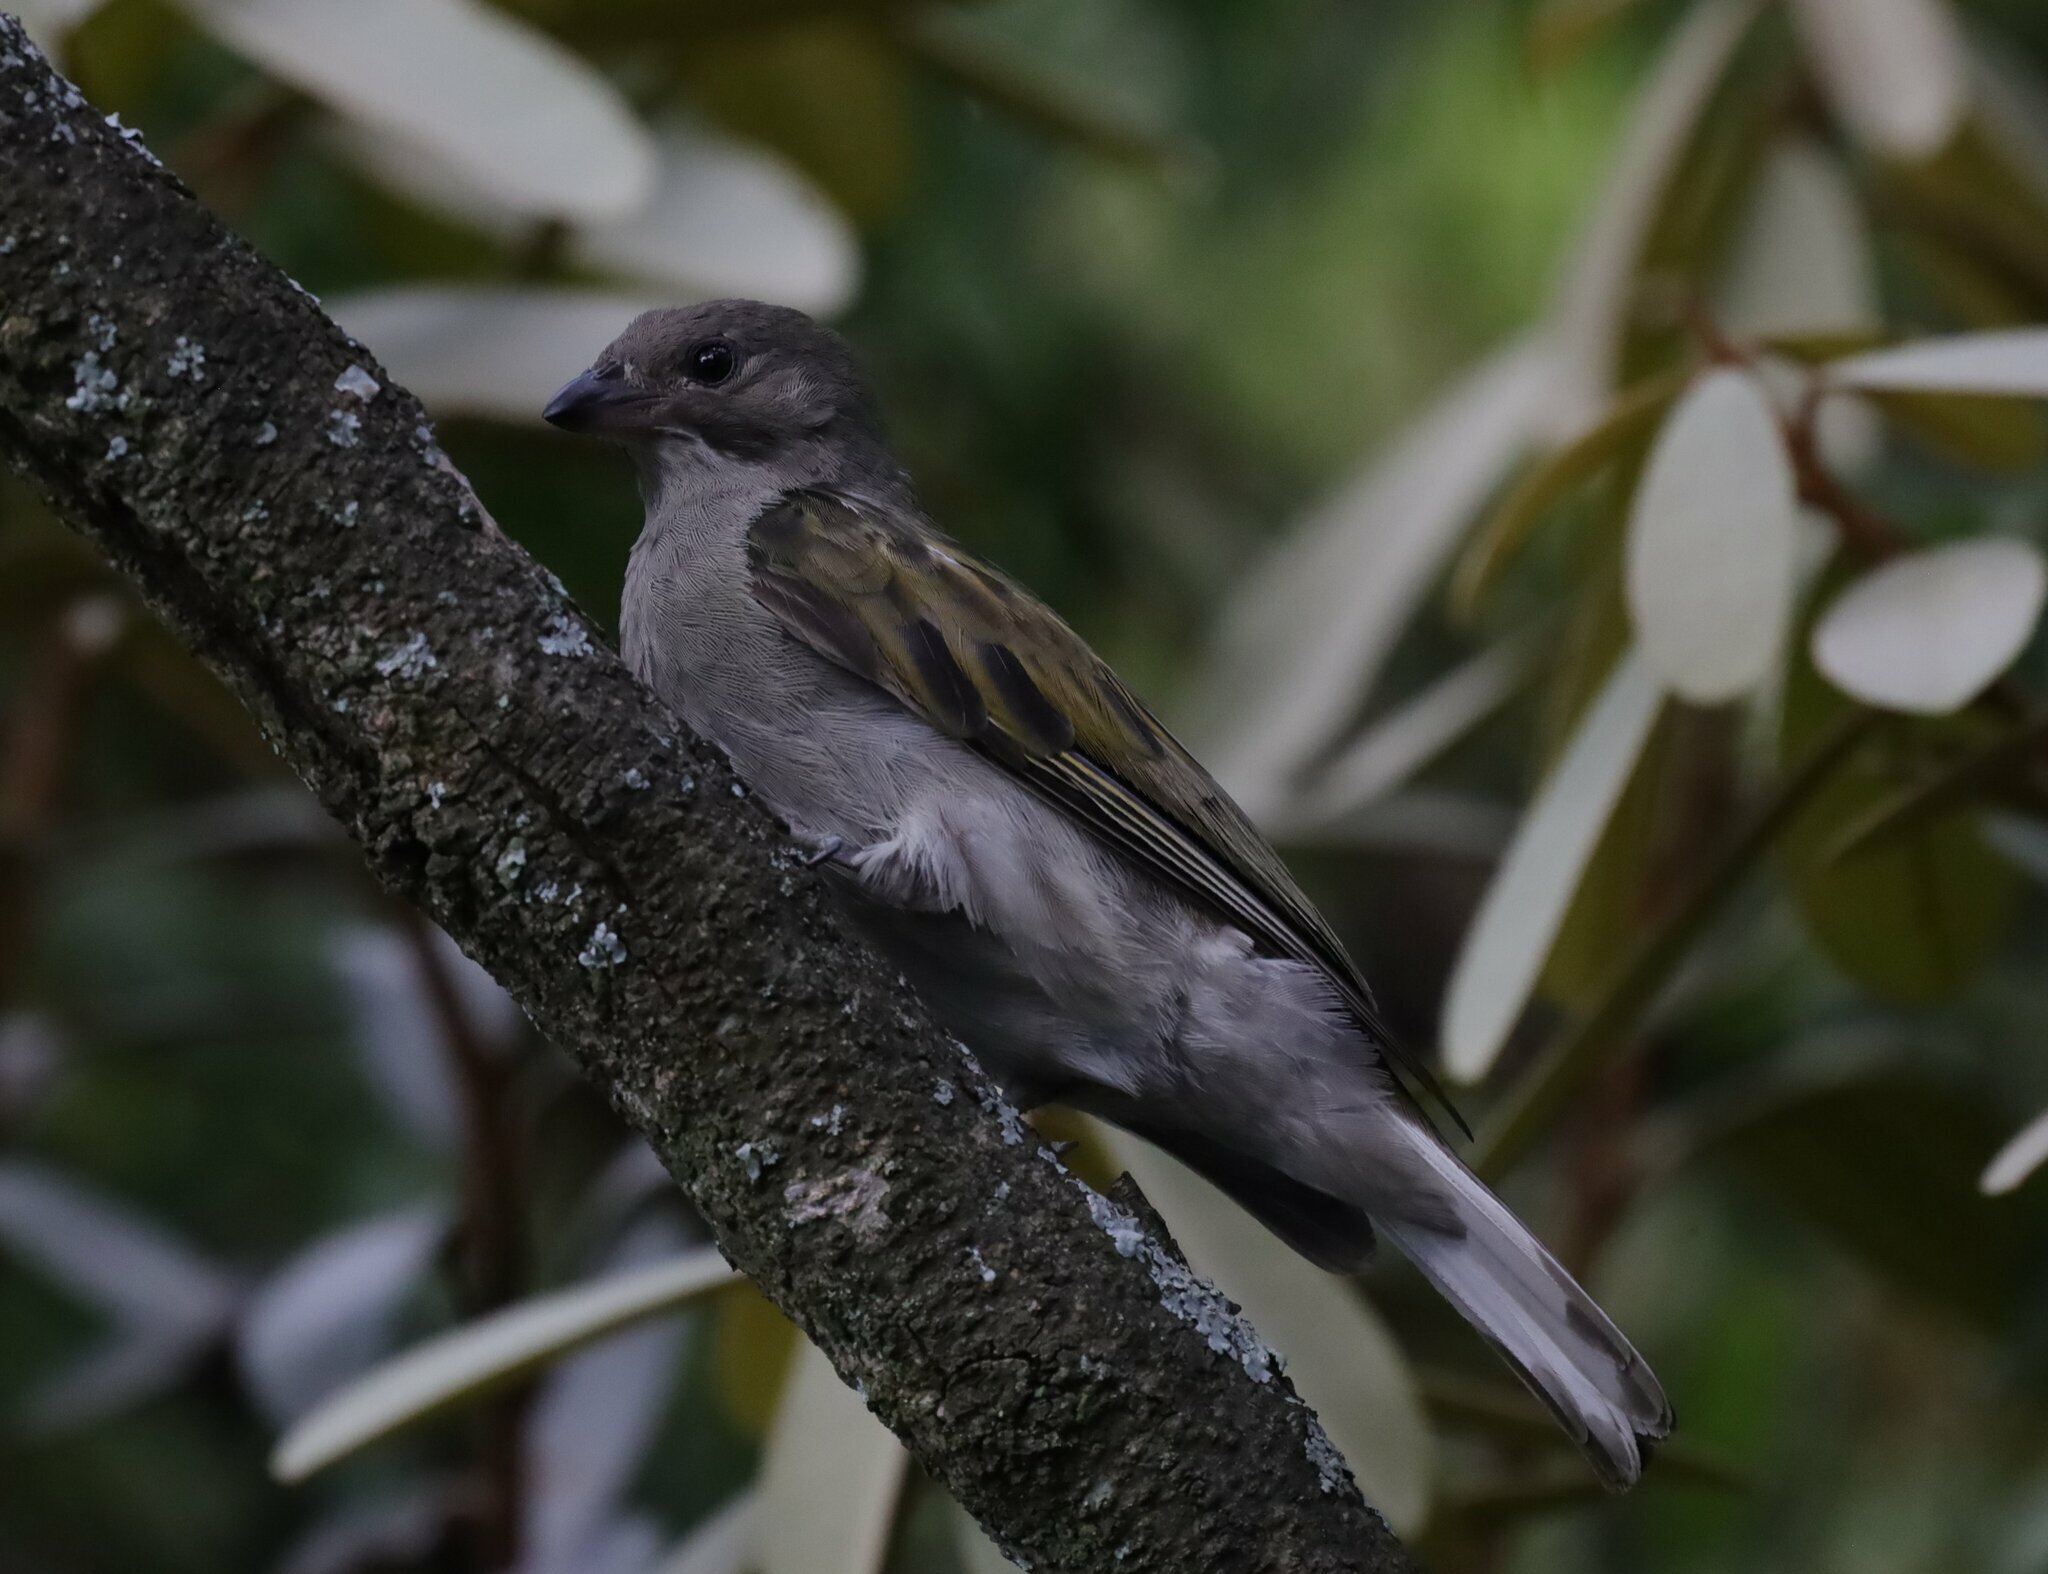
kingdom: Animalia
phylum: Chordata
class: Aves
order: Piciformes
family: Indicatoridae
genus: Indicator
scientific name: Indicator minor
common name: Lesser honeyguide
